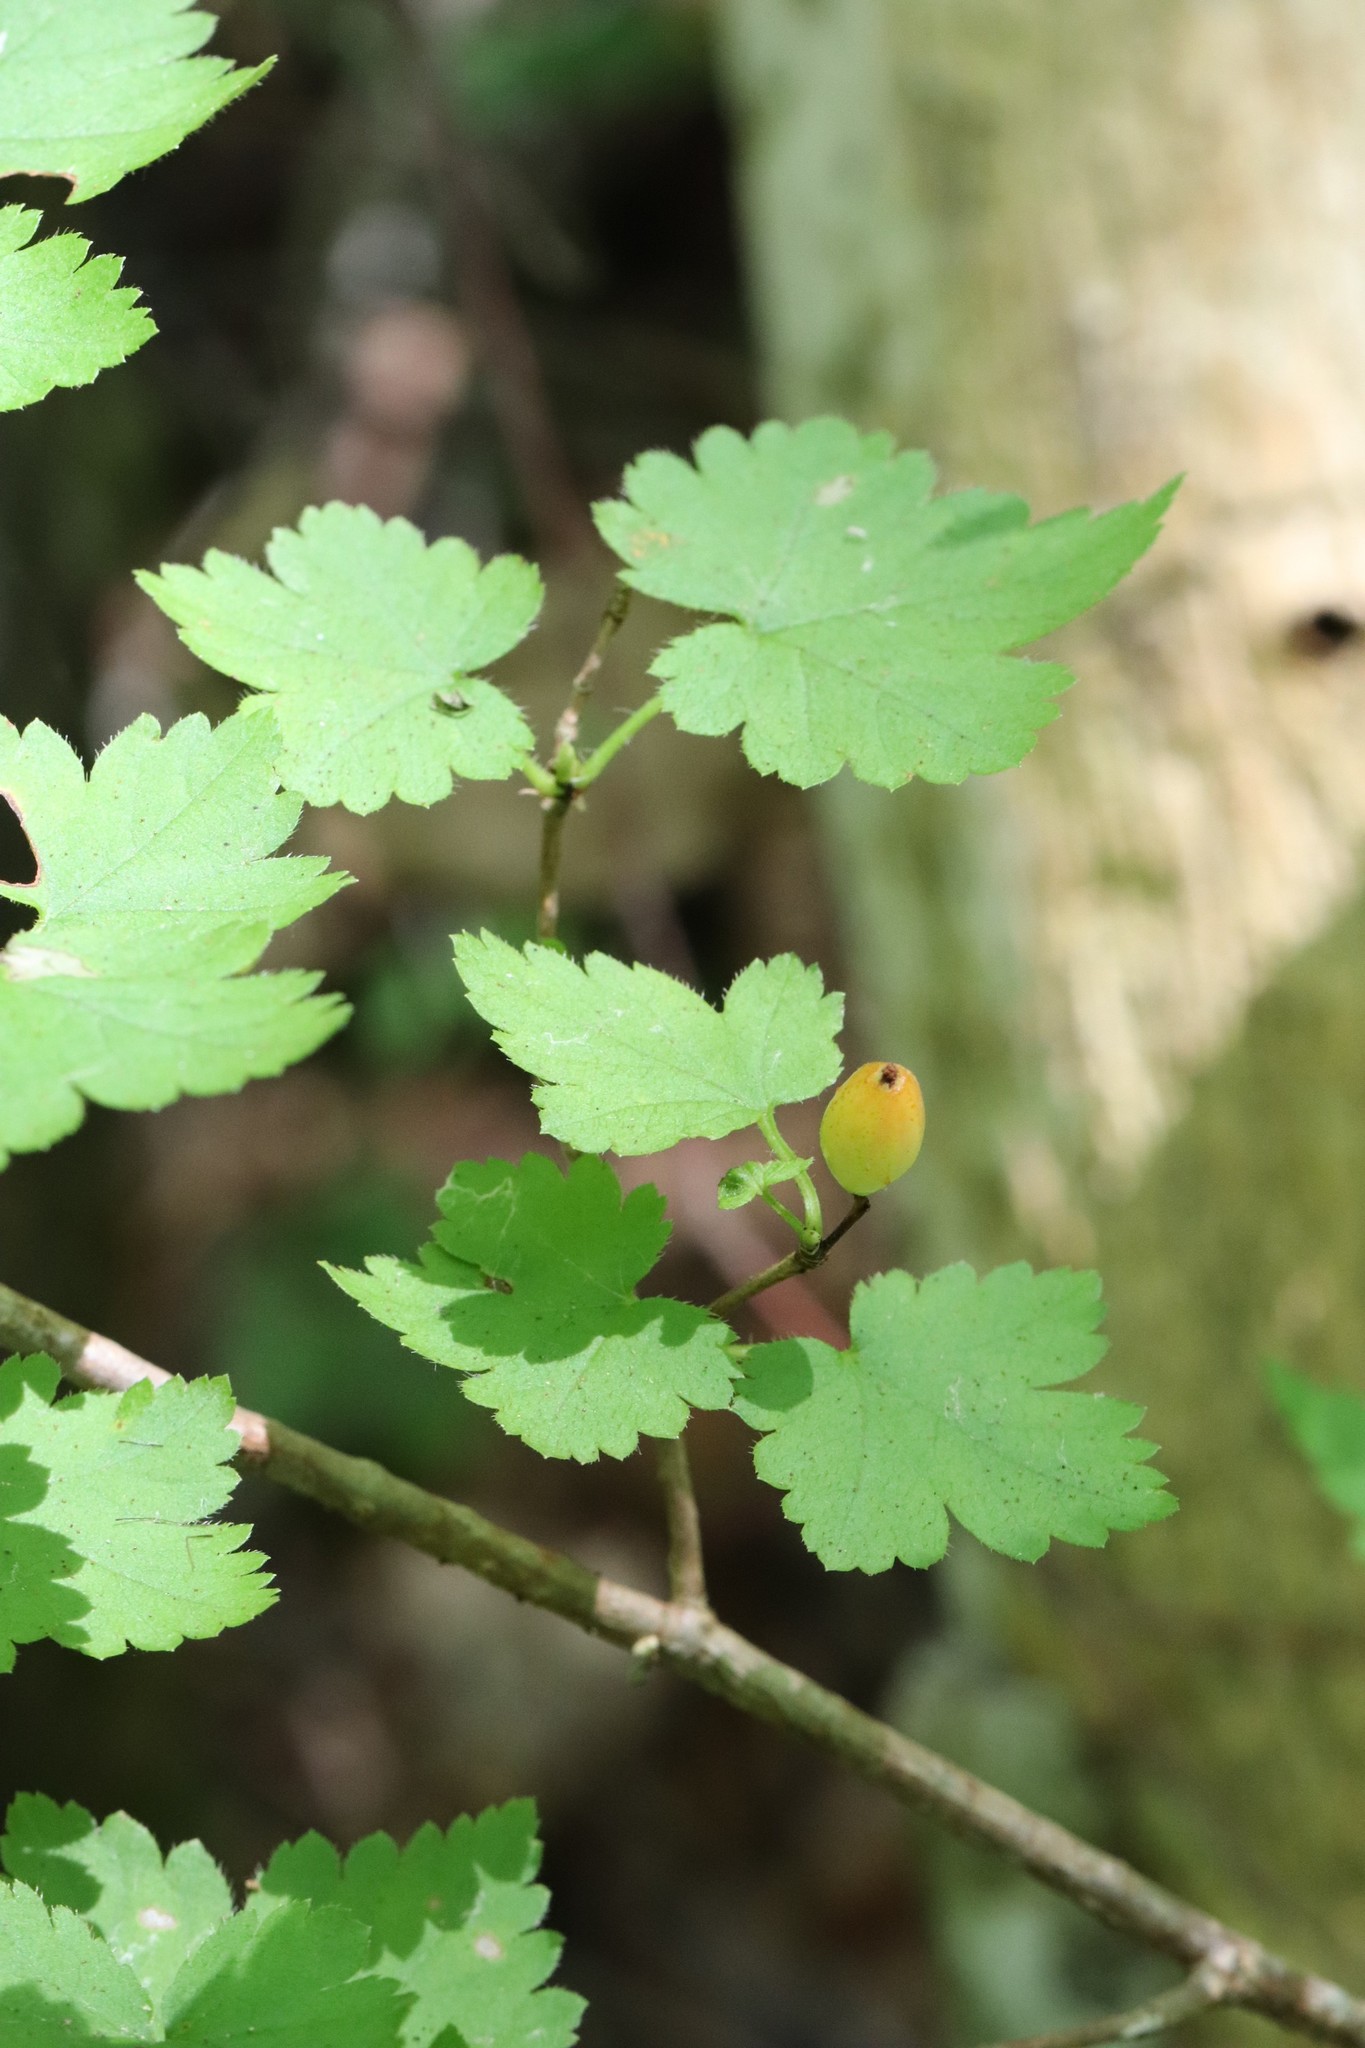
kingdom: Plantae
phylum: Tracheophyta
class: Magnoliopsida
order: Saxifragales
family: Grossulariaceae
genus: Ribes
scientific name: Ribes maximoviczianum
